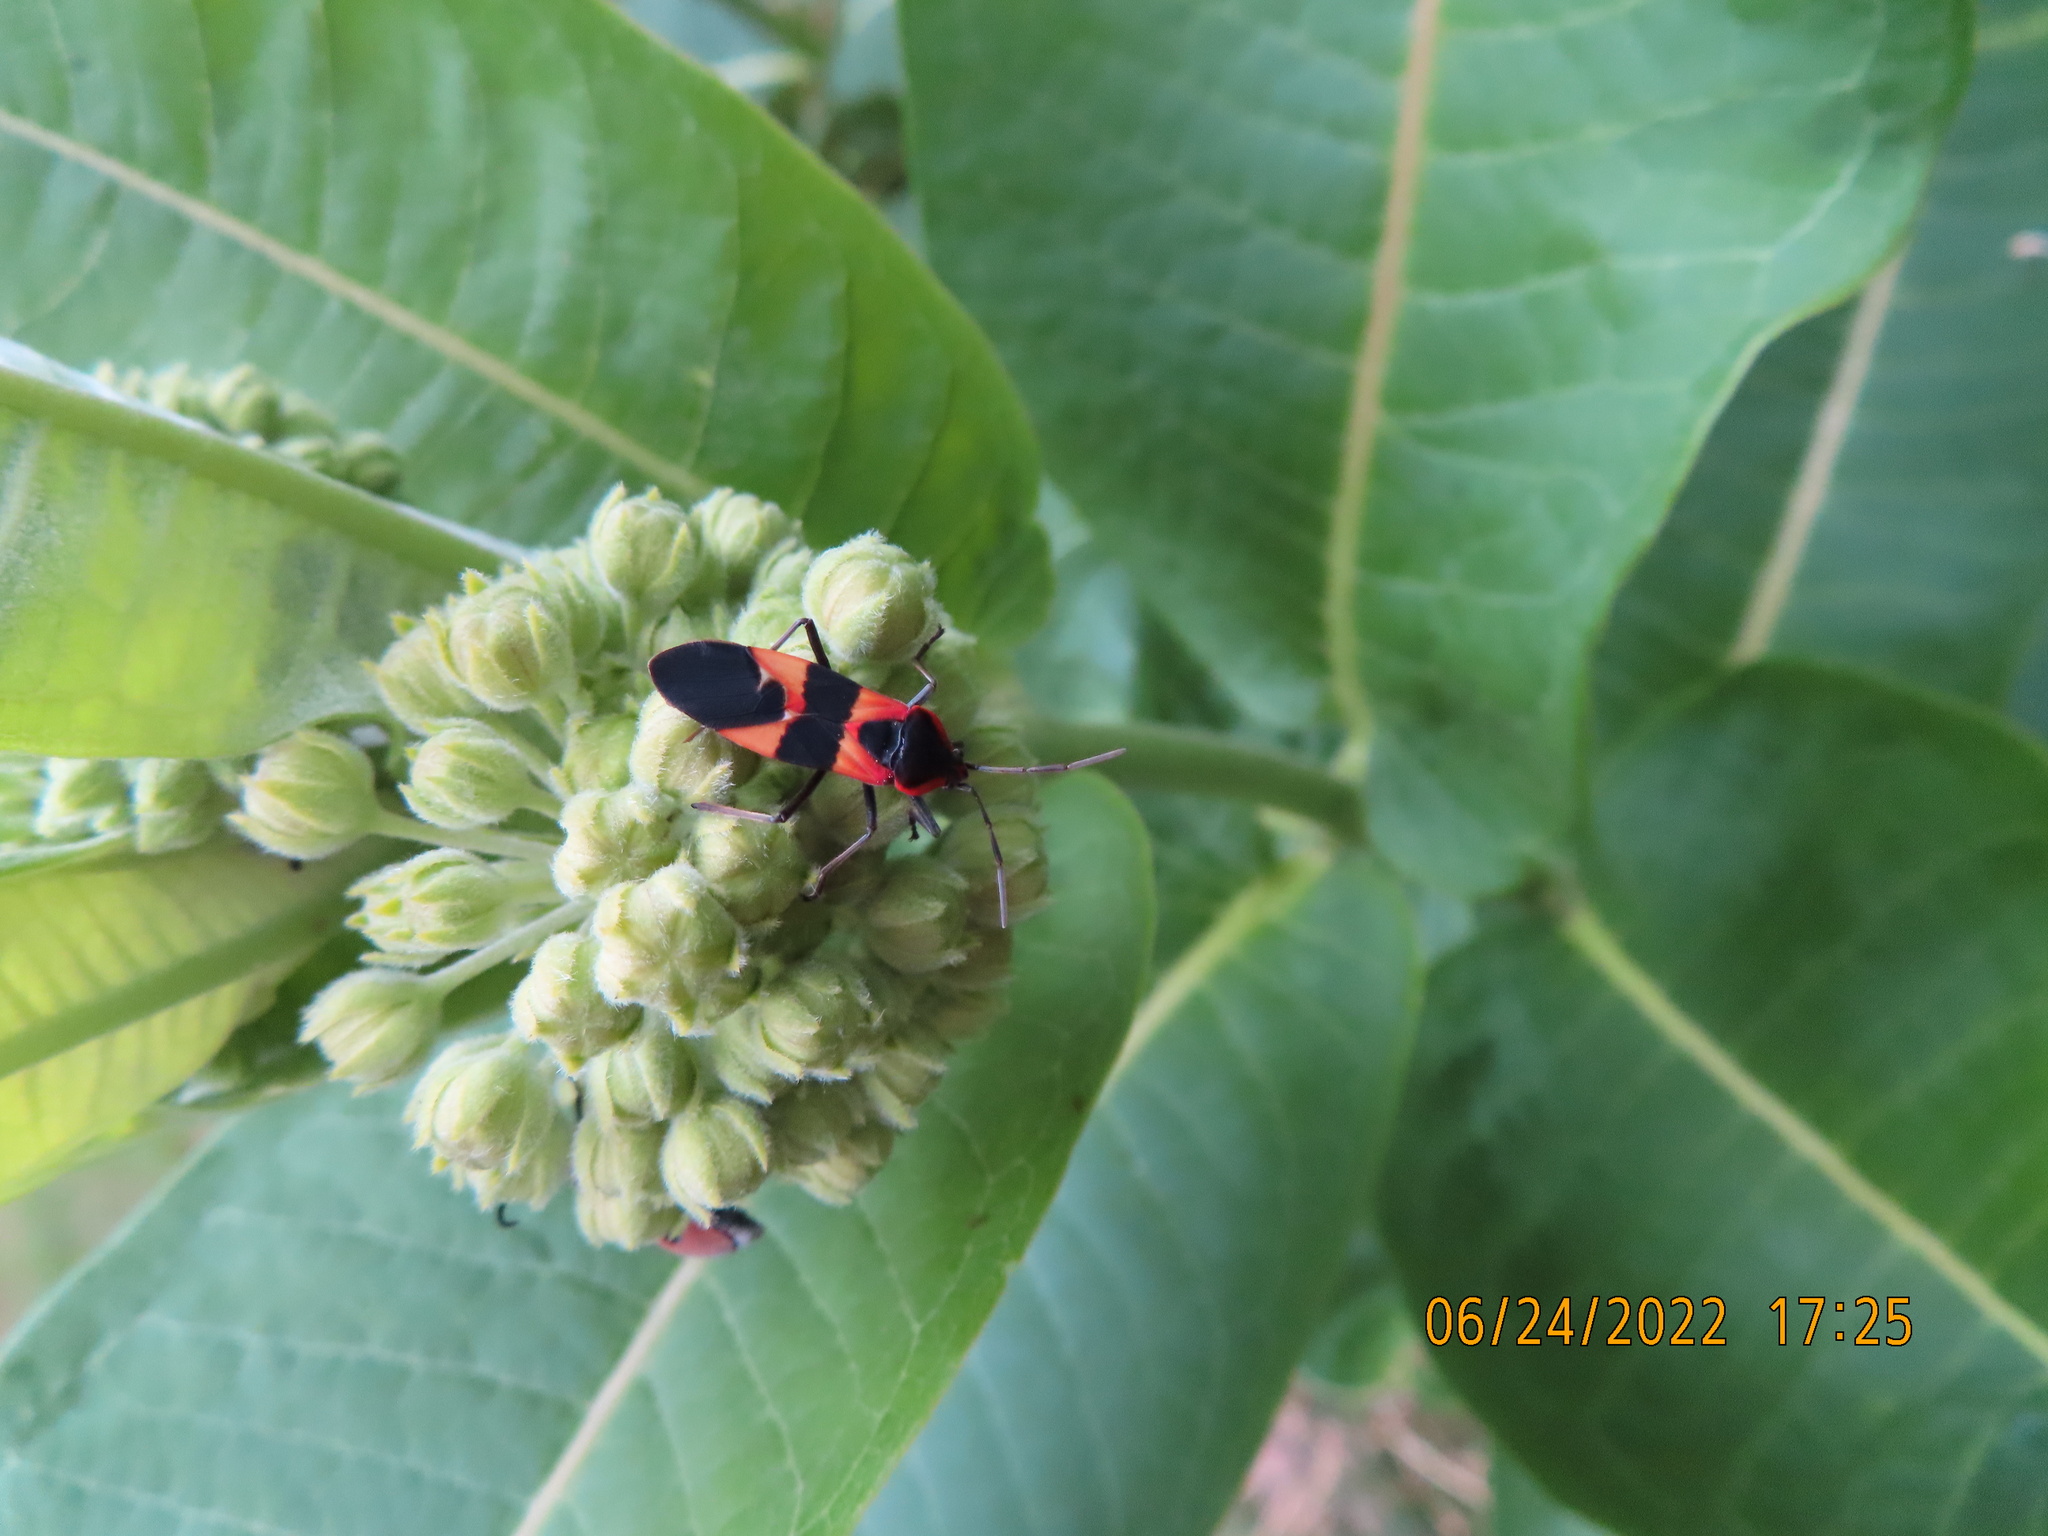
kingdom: Animalia
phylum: Arthropoda
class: Insecta
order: Hemiptera
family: Lygaeidae
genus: Oncopeltus
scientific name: Oncopeltus fasciatus
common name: Large milkweed bug
